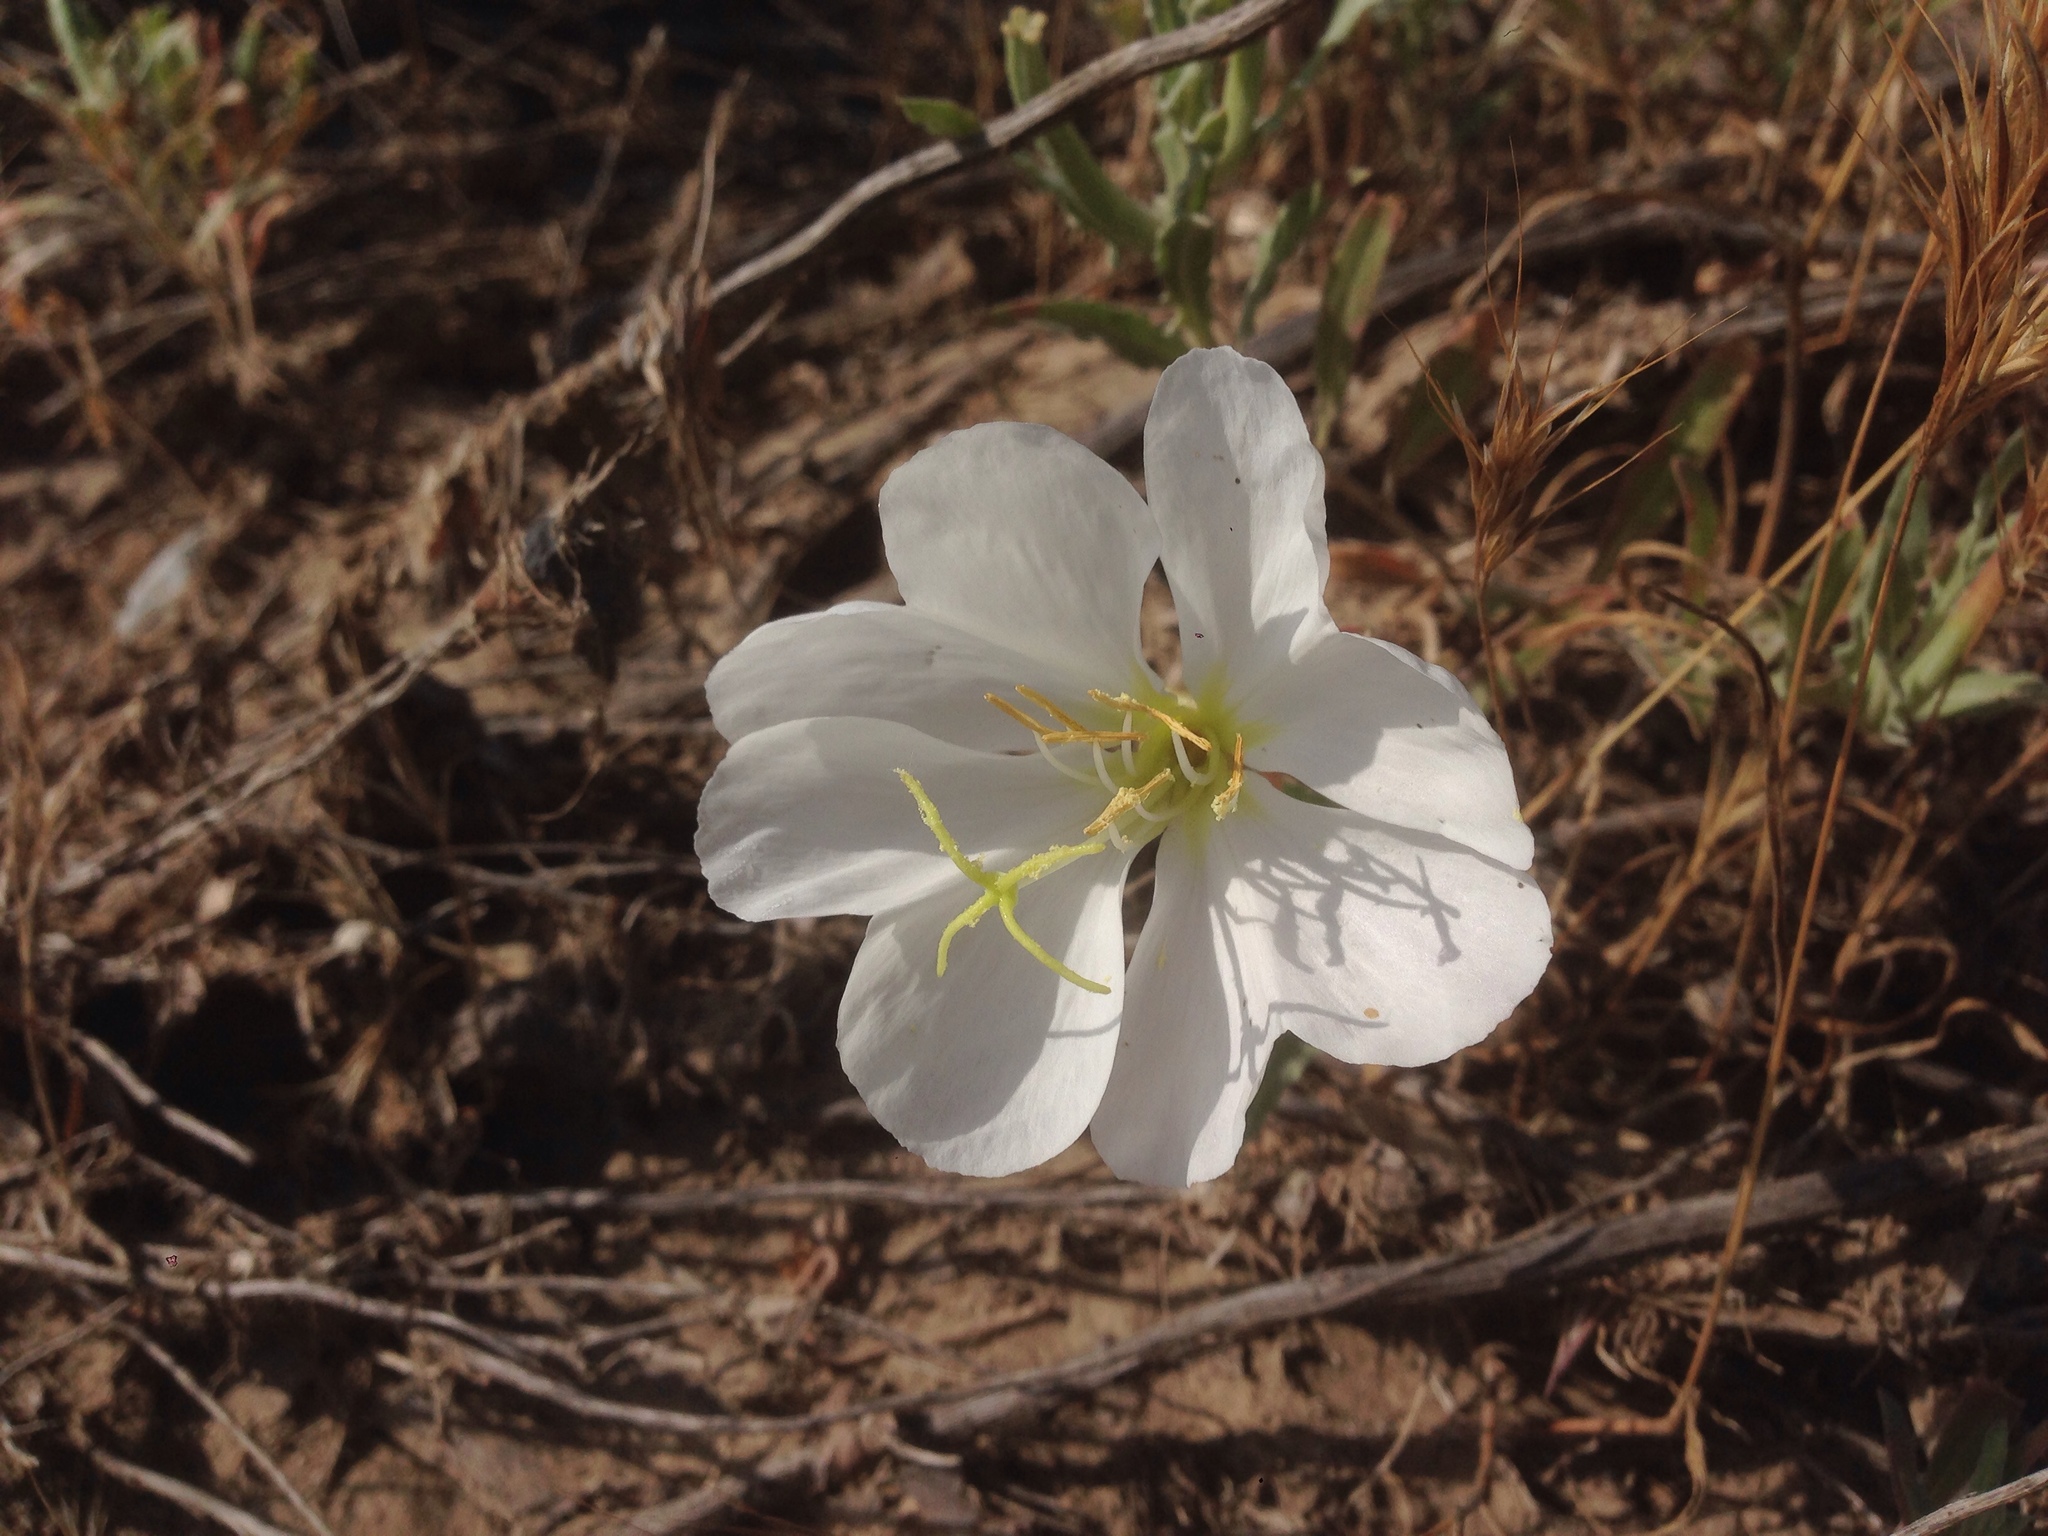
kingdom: Plantae
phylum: Tracheophyta
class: Magnoliopsida
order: Myrtales
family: Onagraceae
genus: Oenothera
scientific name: Oenothera californica
